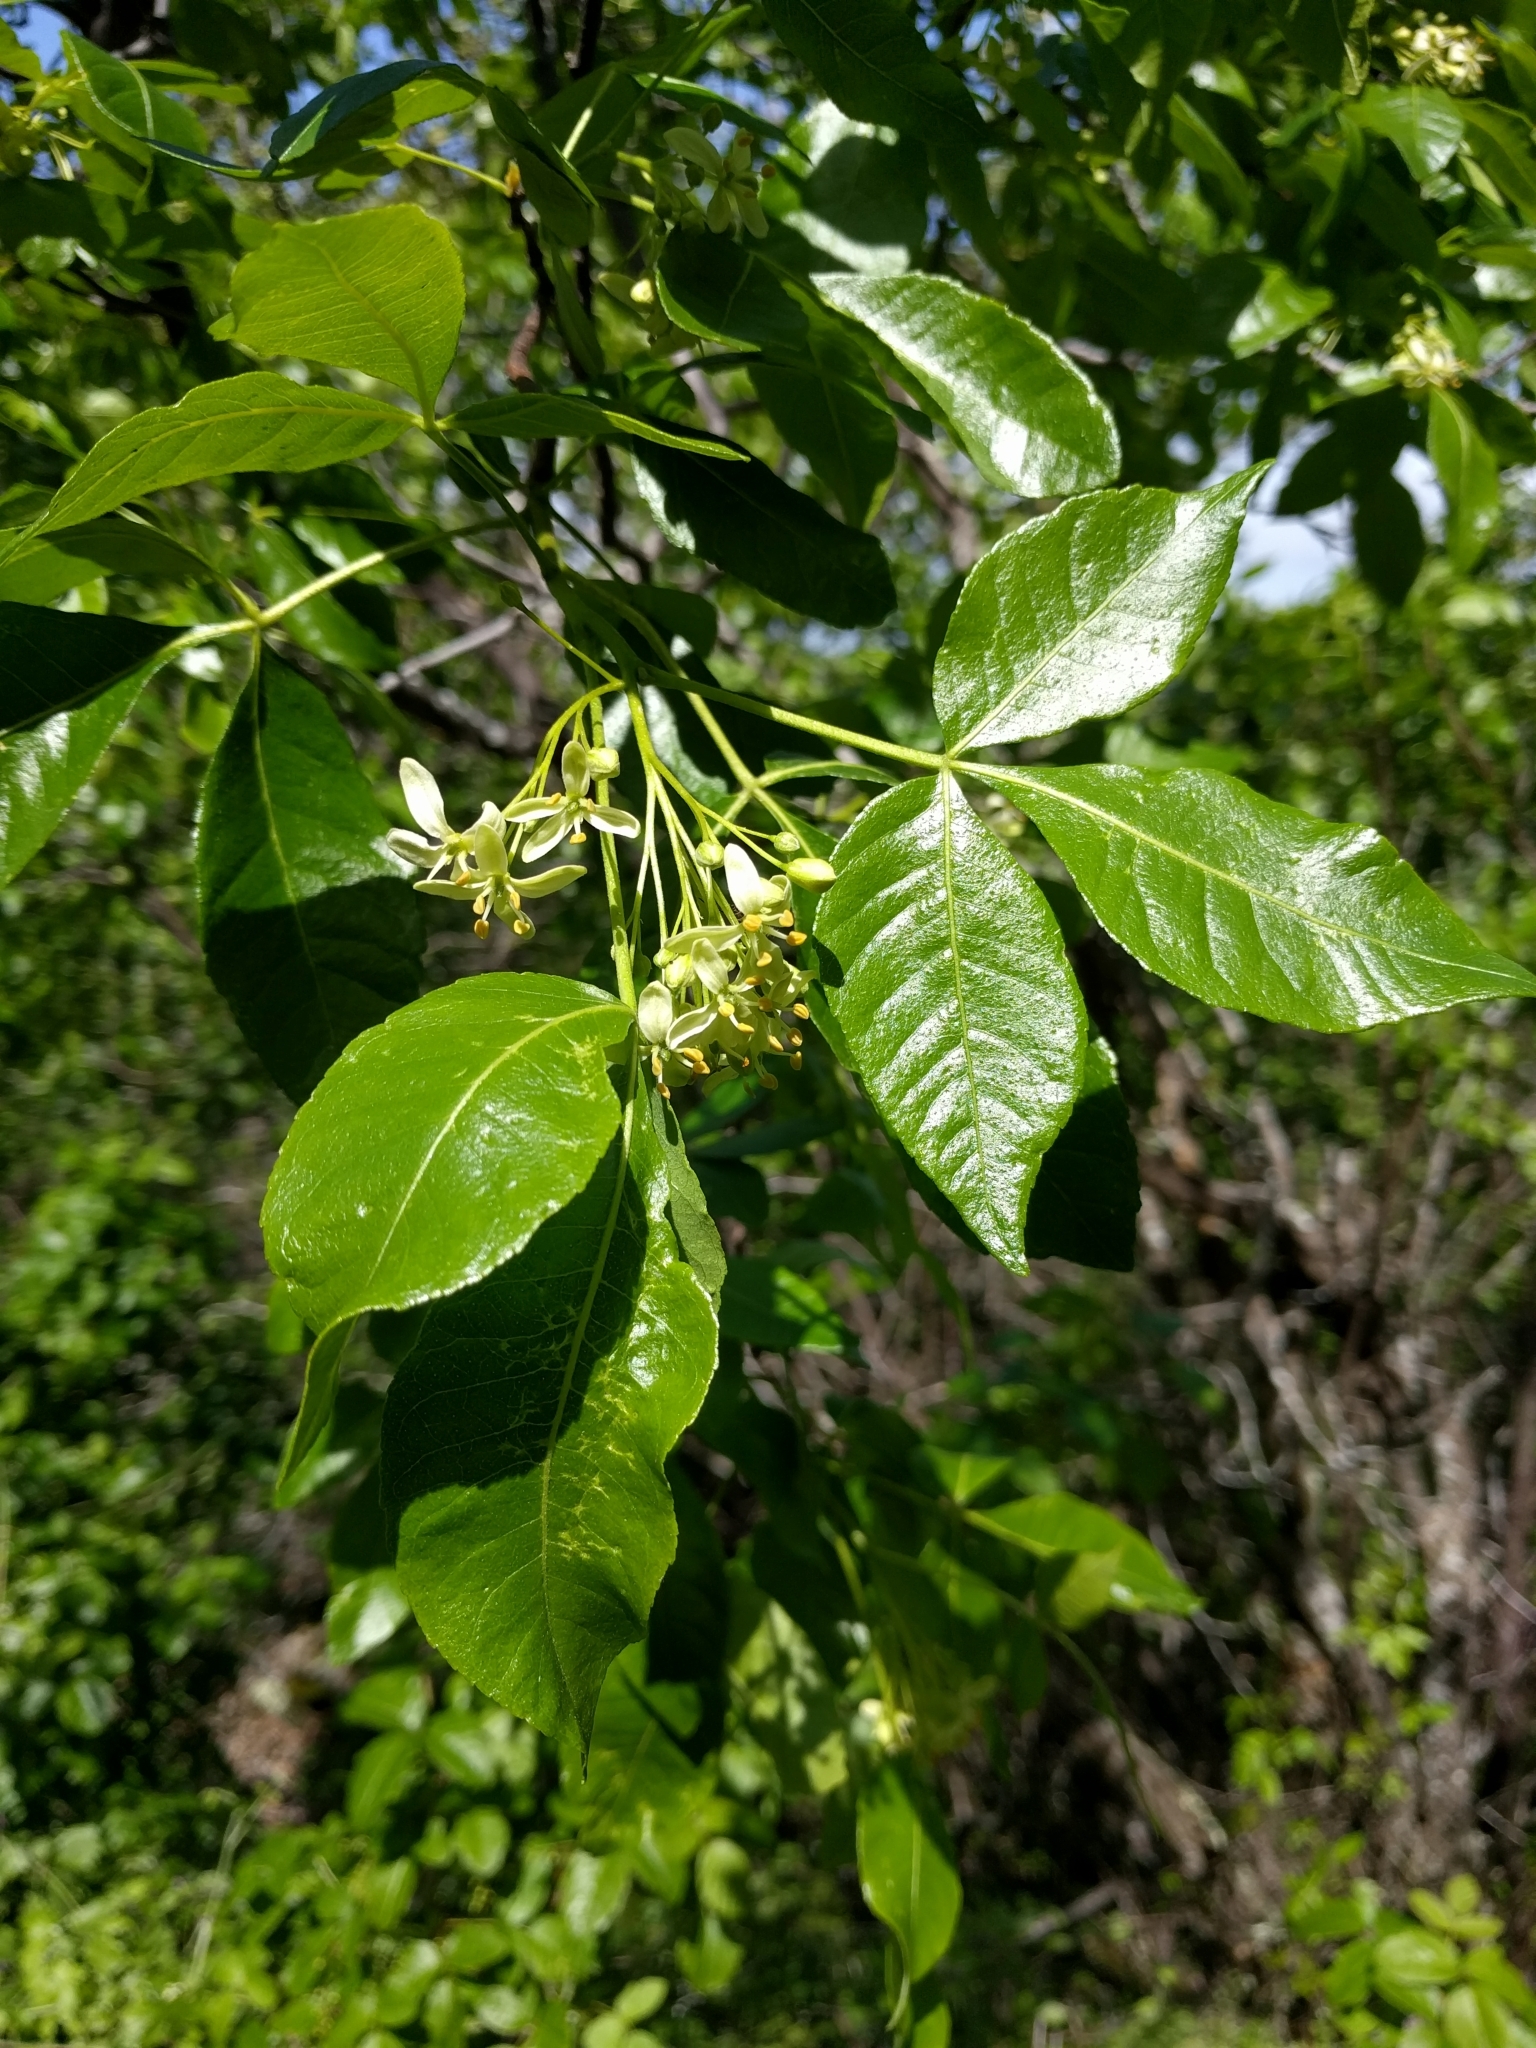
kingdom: Plantae
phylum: Tracheophyta
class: Magnoliopsida
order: Sapindales
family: Rutaceae
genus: Ptelea
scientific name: Ptelea crenulata
